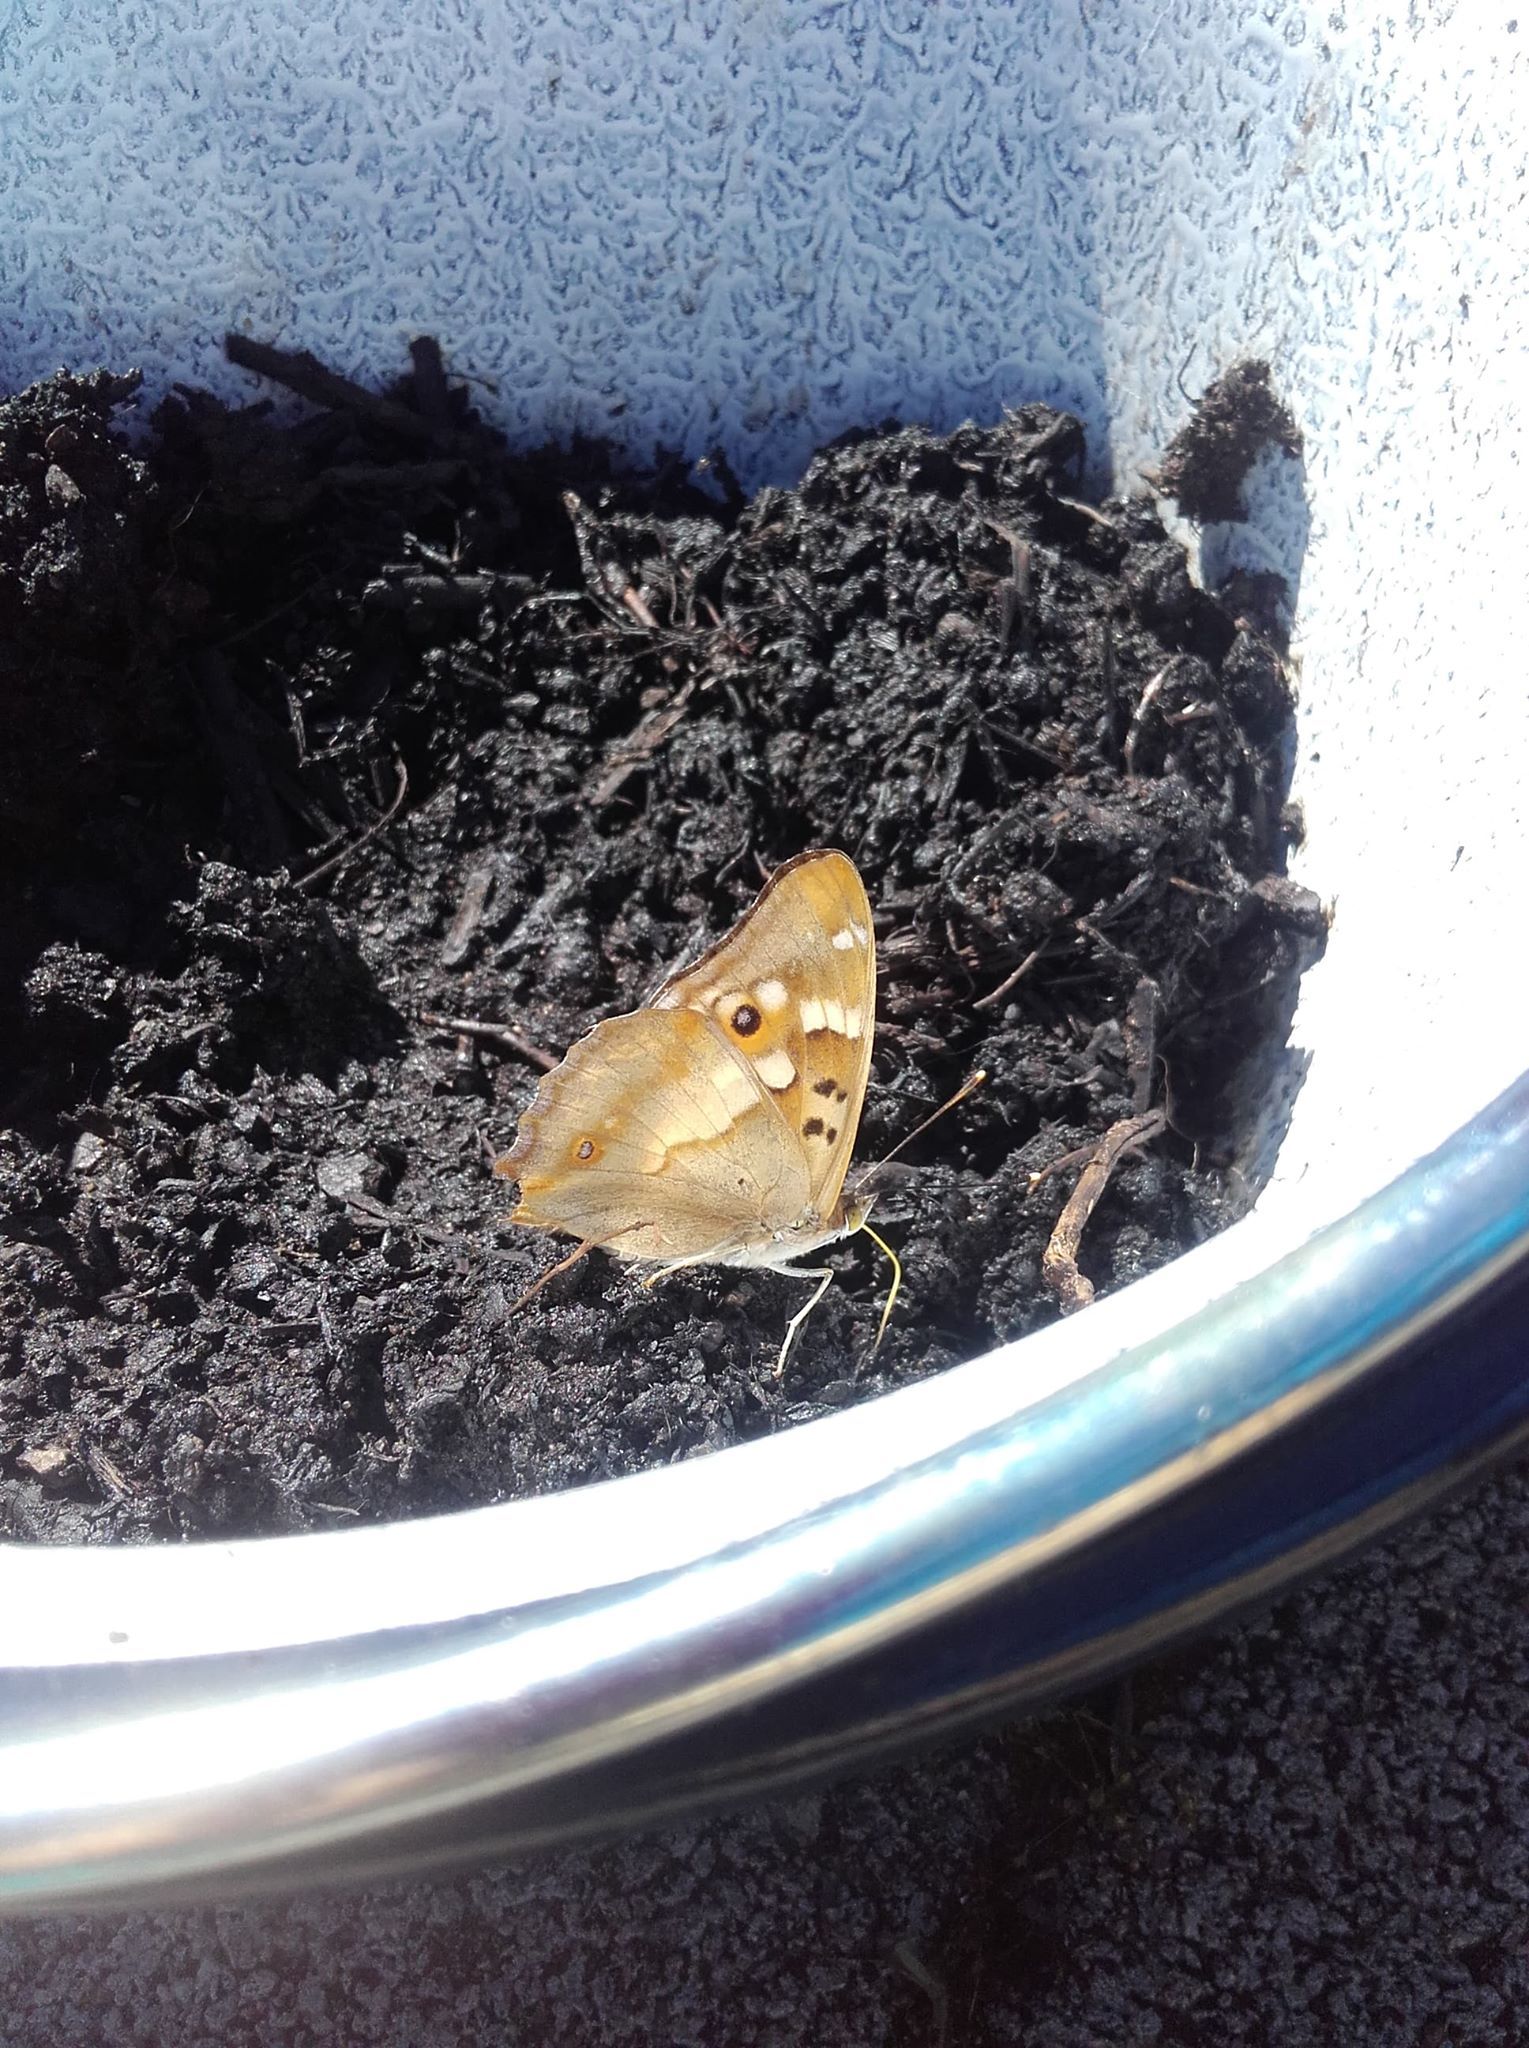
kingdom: Animalia
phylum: Arthropoda
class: Insecta
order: Lepidoptera
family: Nymphalidae
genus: Apatura
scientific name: Apatura ilia
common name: Lesser purple emperor
